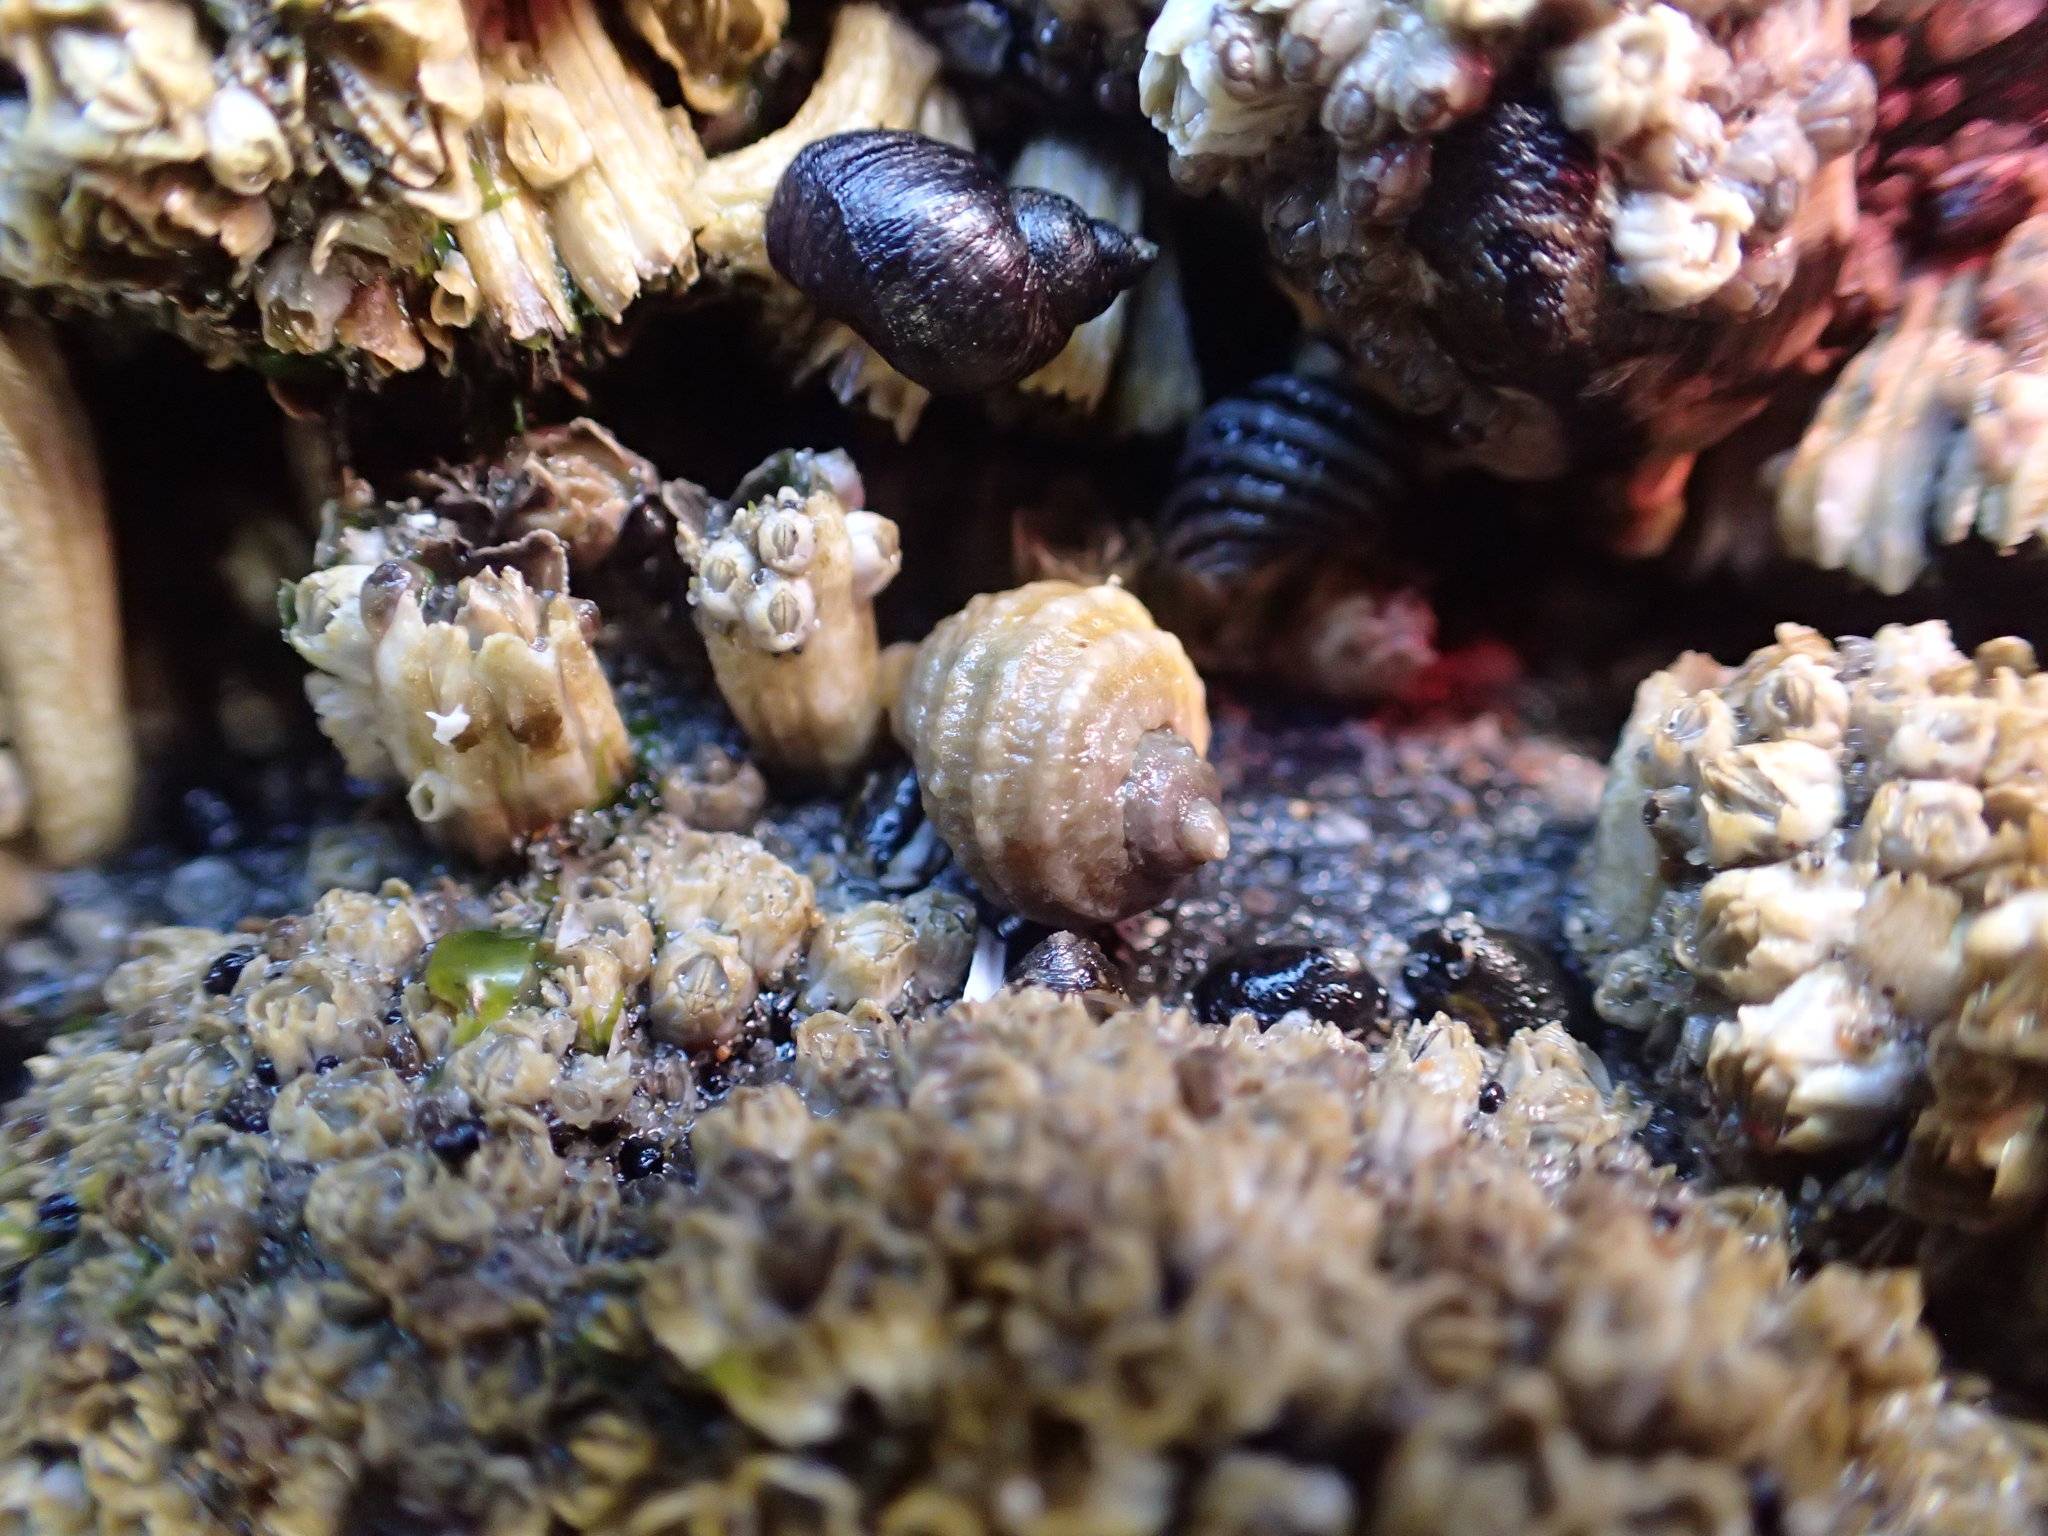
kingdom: Animalia
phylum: Mollusca
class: Gastropoda
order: Neogastropoda
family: Muricidae
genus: Nucella
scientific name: Nucella ostrina
